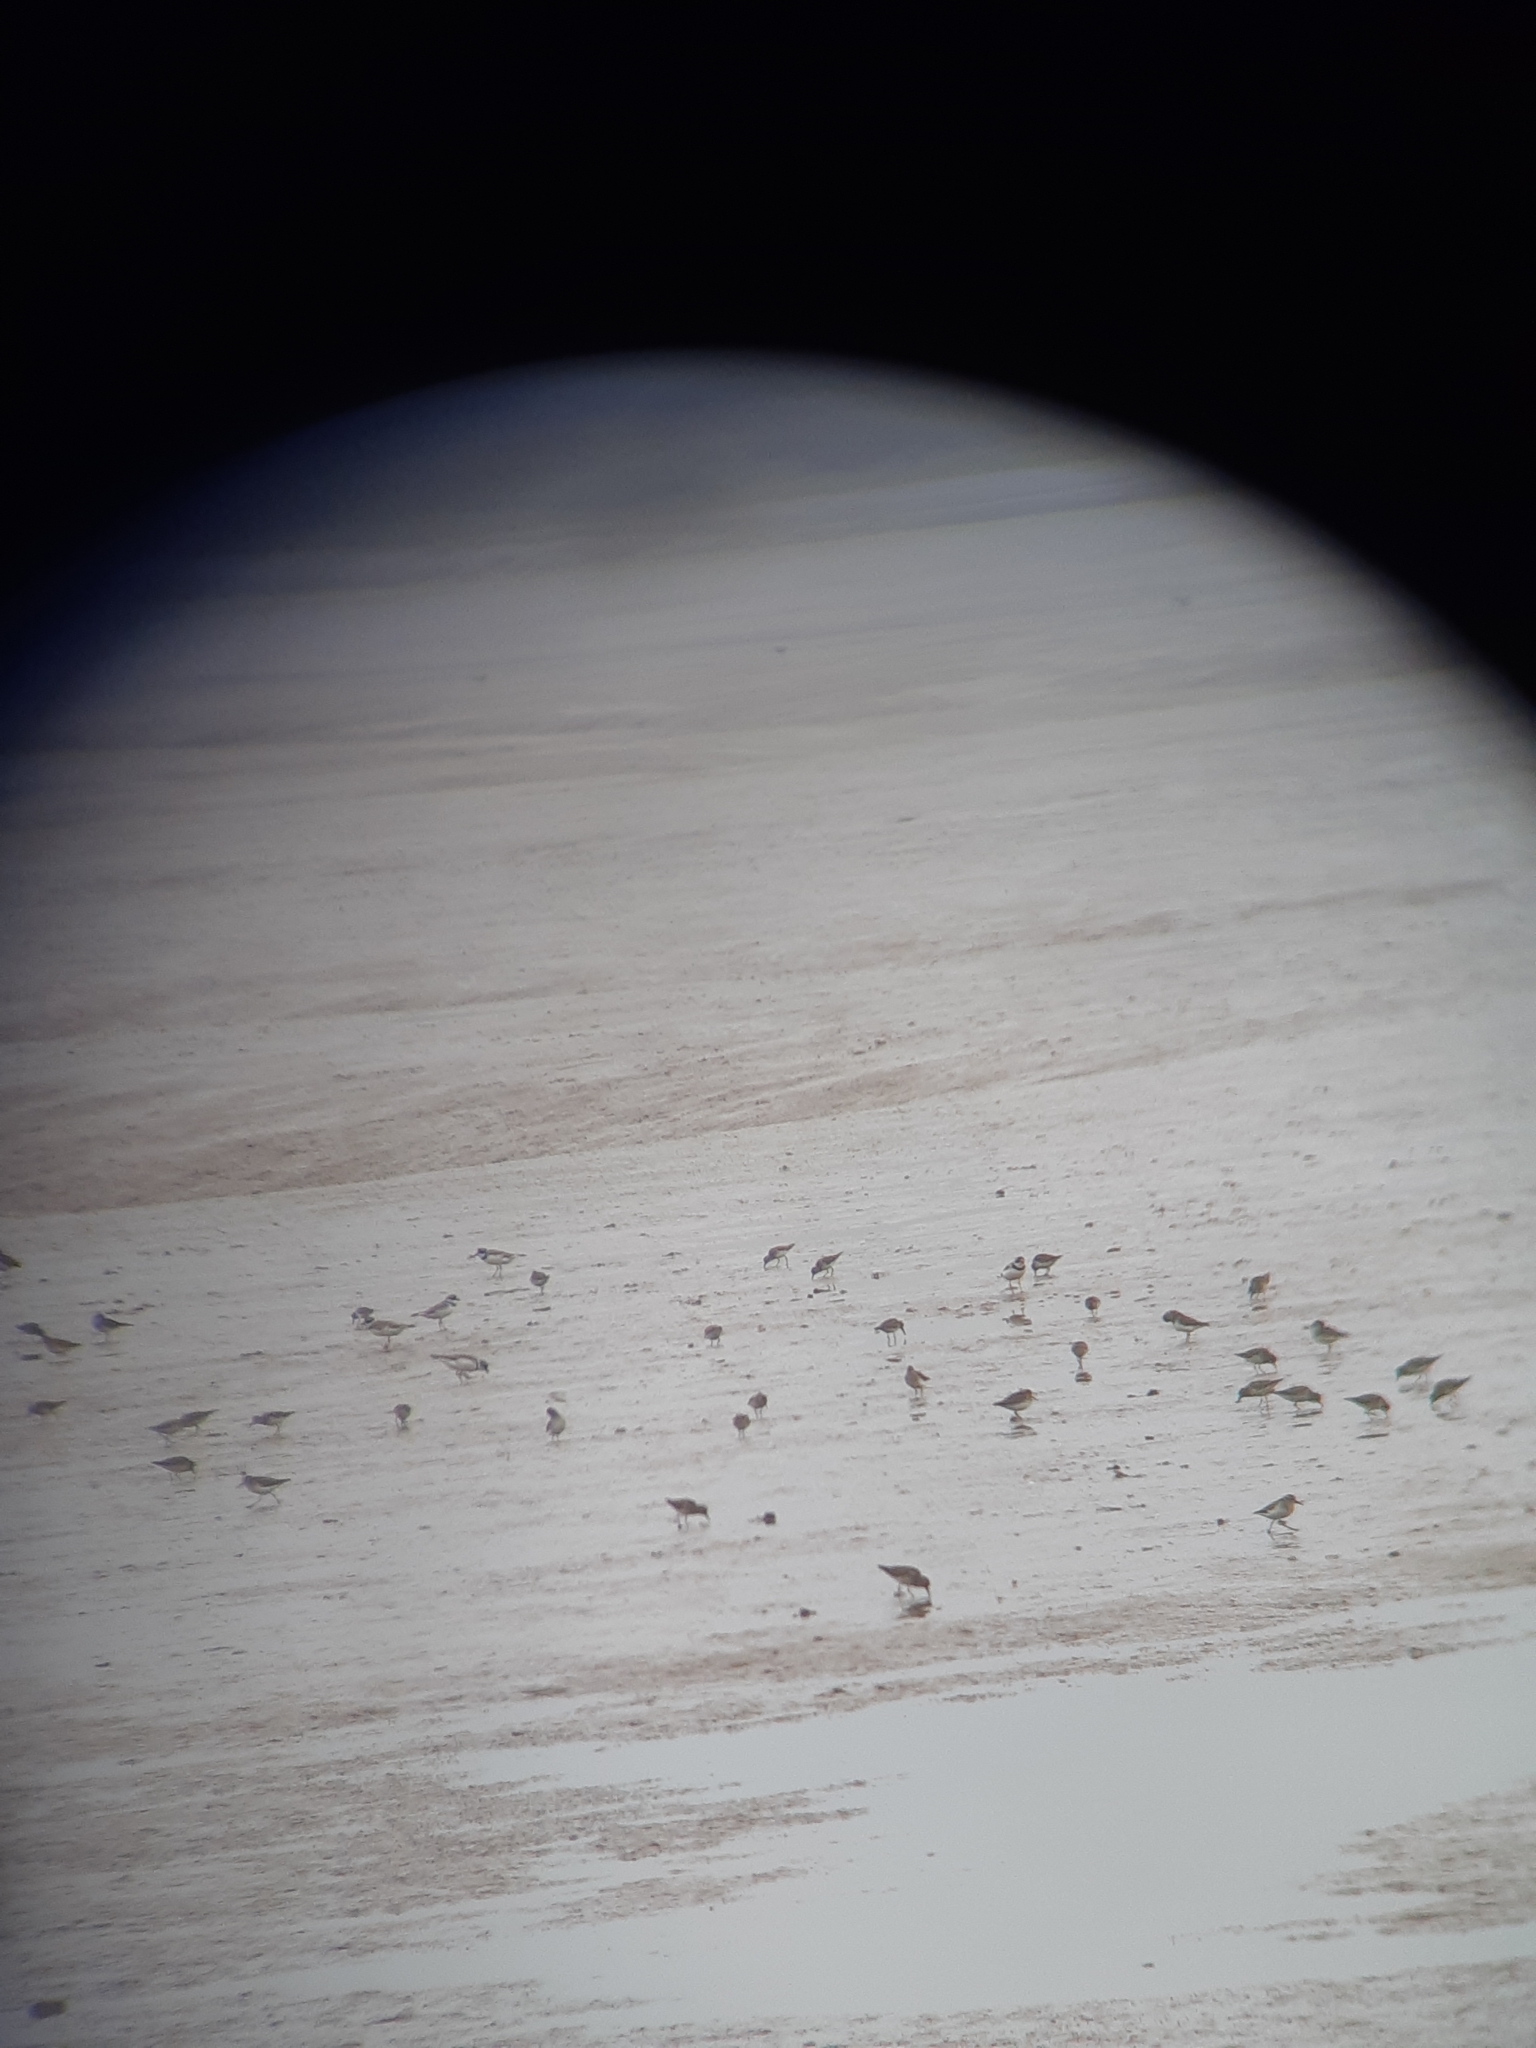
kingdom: Animalia
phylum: Chordata
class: Aves
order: Charadriiformes
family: Charadriidae
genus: Charadrius
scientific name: Charadrius semipalmatus
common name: Semipalmated plover
